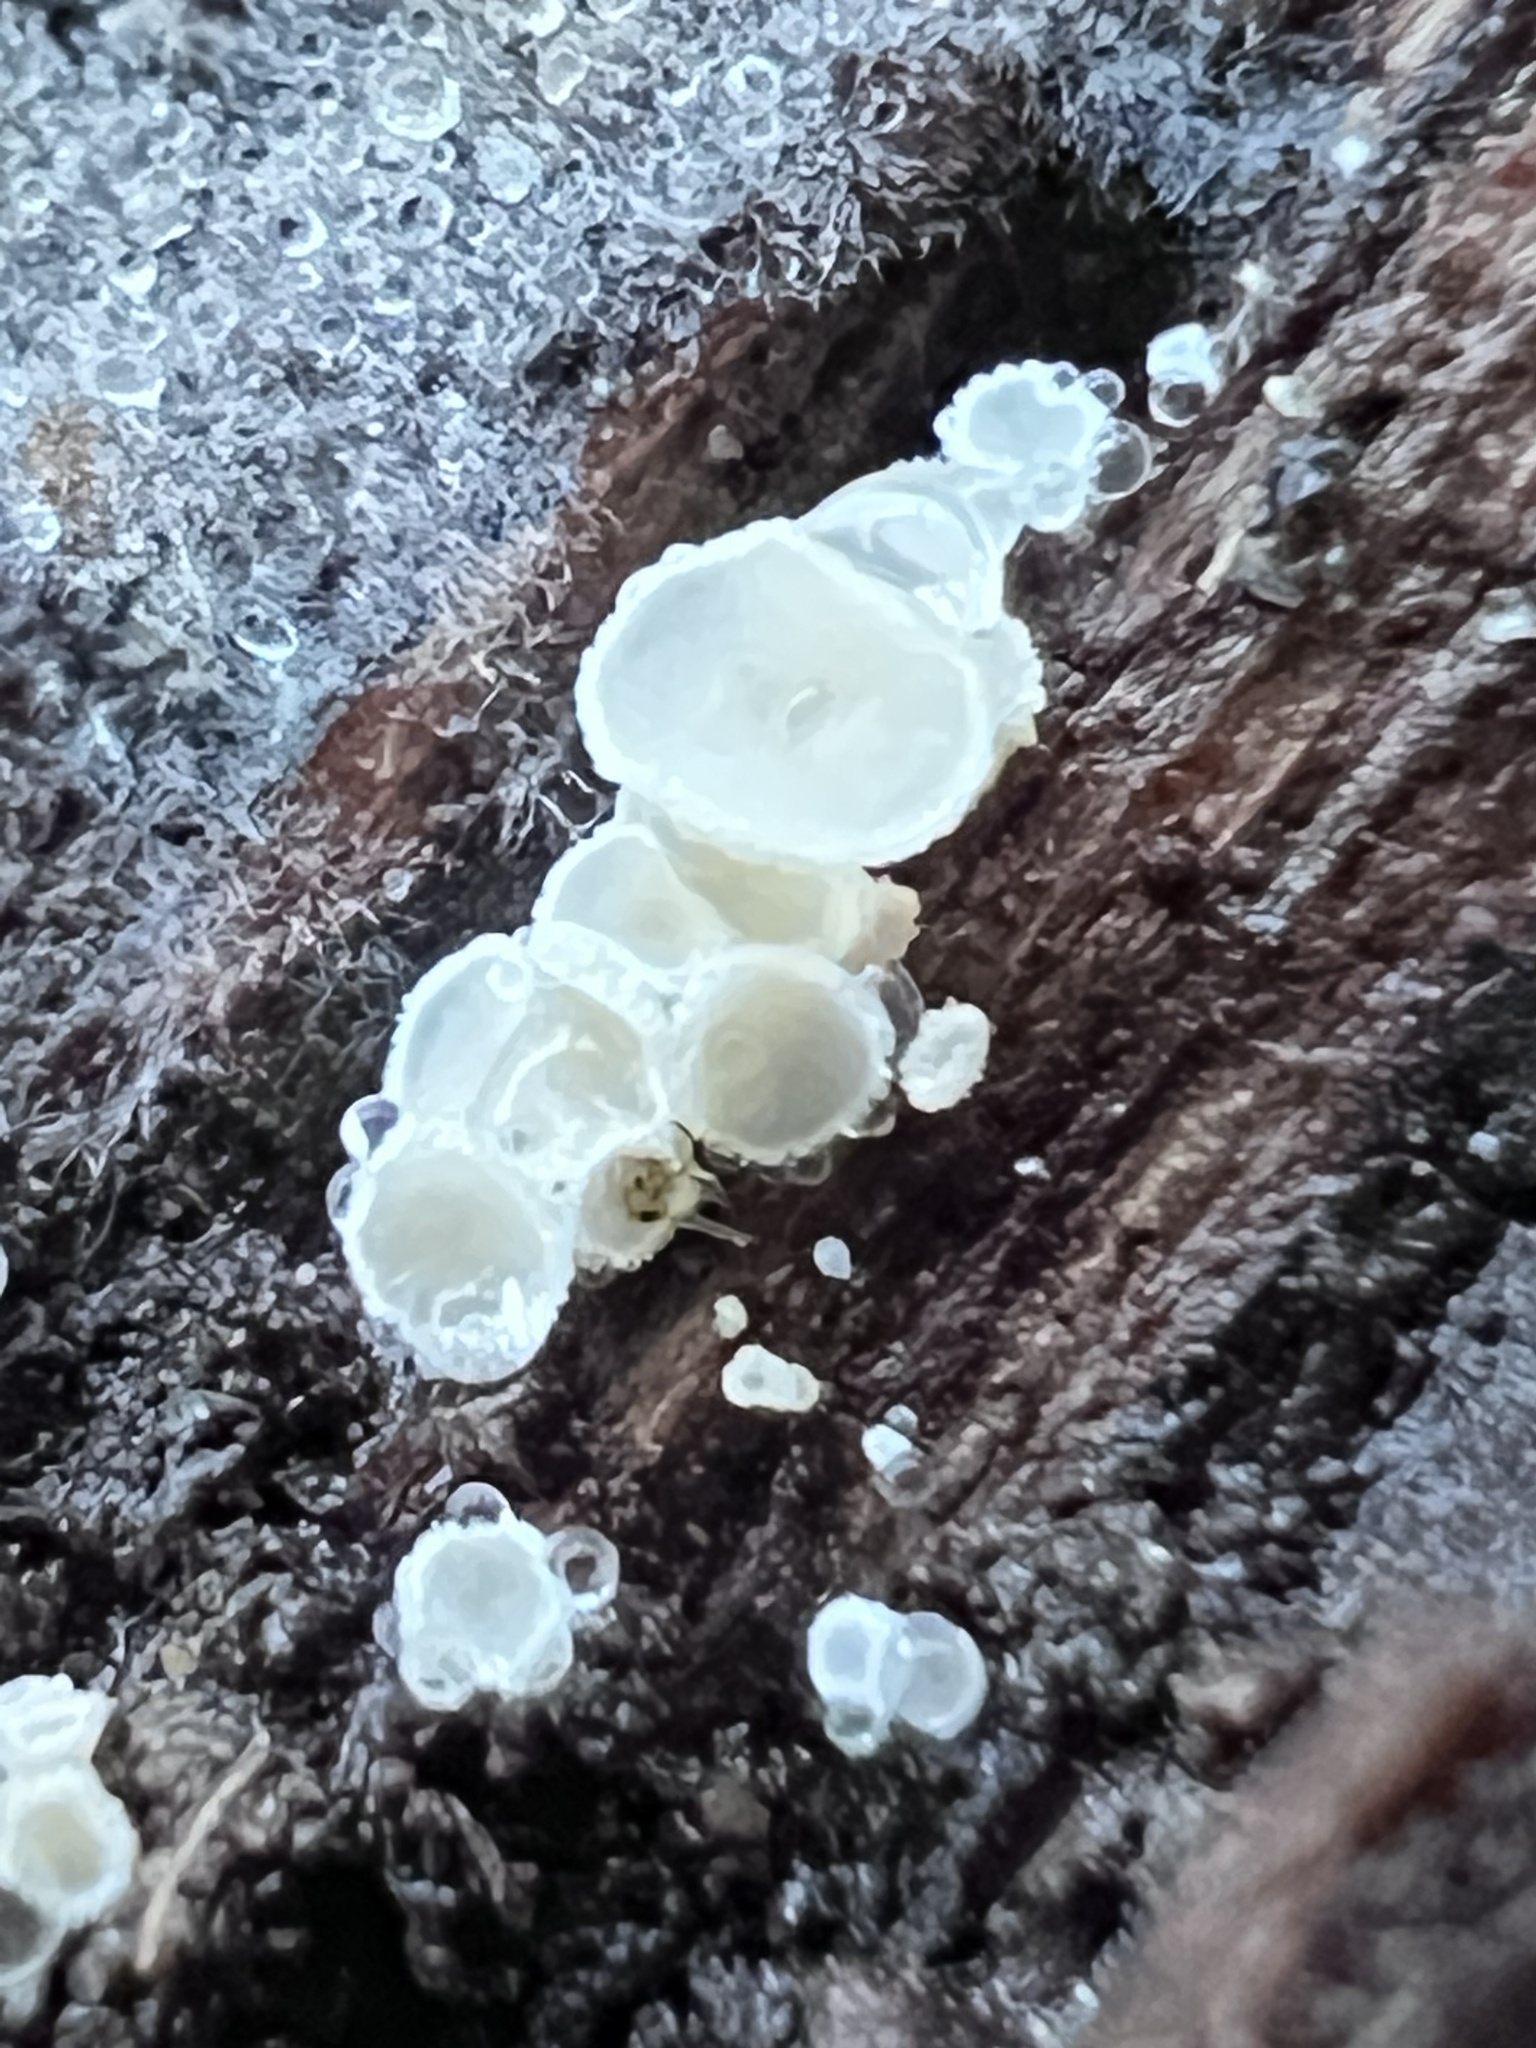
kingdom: Fungi
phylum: Ascomycota
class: Leotiomycetes
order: Helotiales
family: Lachnaceae
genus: Lachnum
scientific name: Lachnum virgineum
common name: Snowy disco
